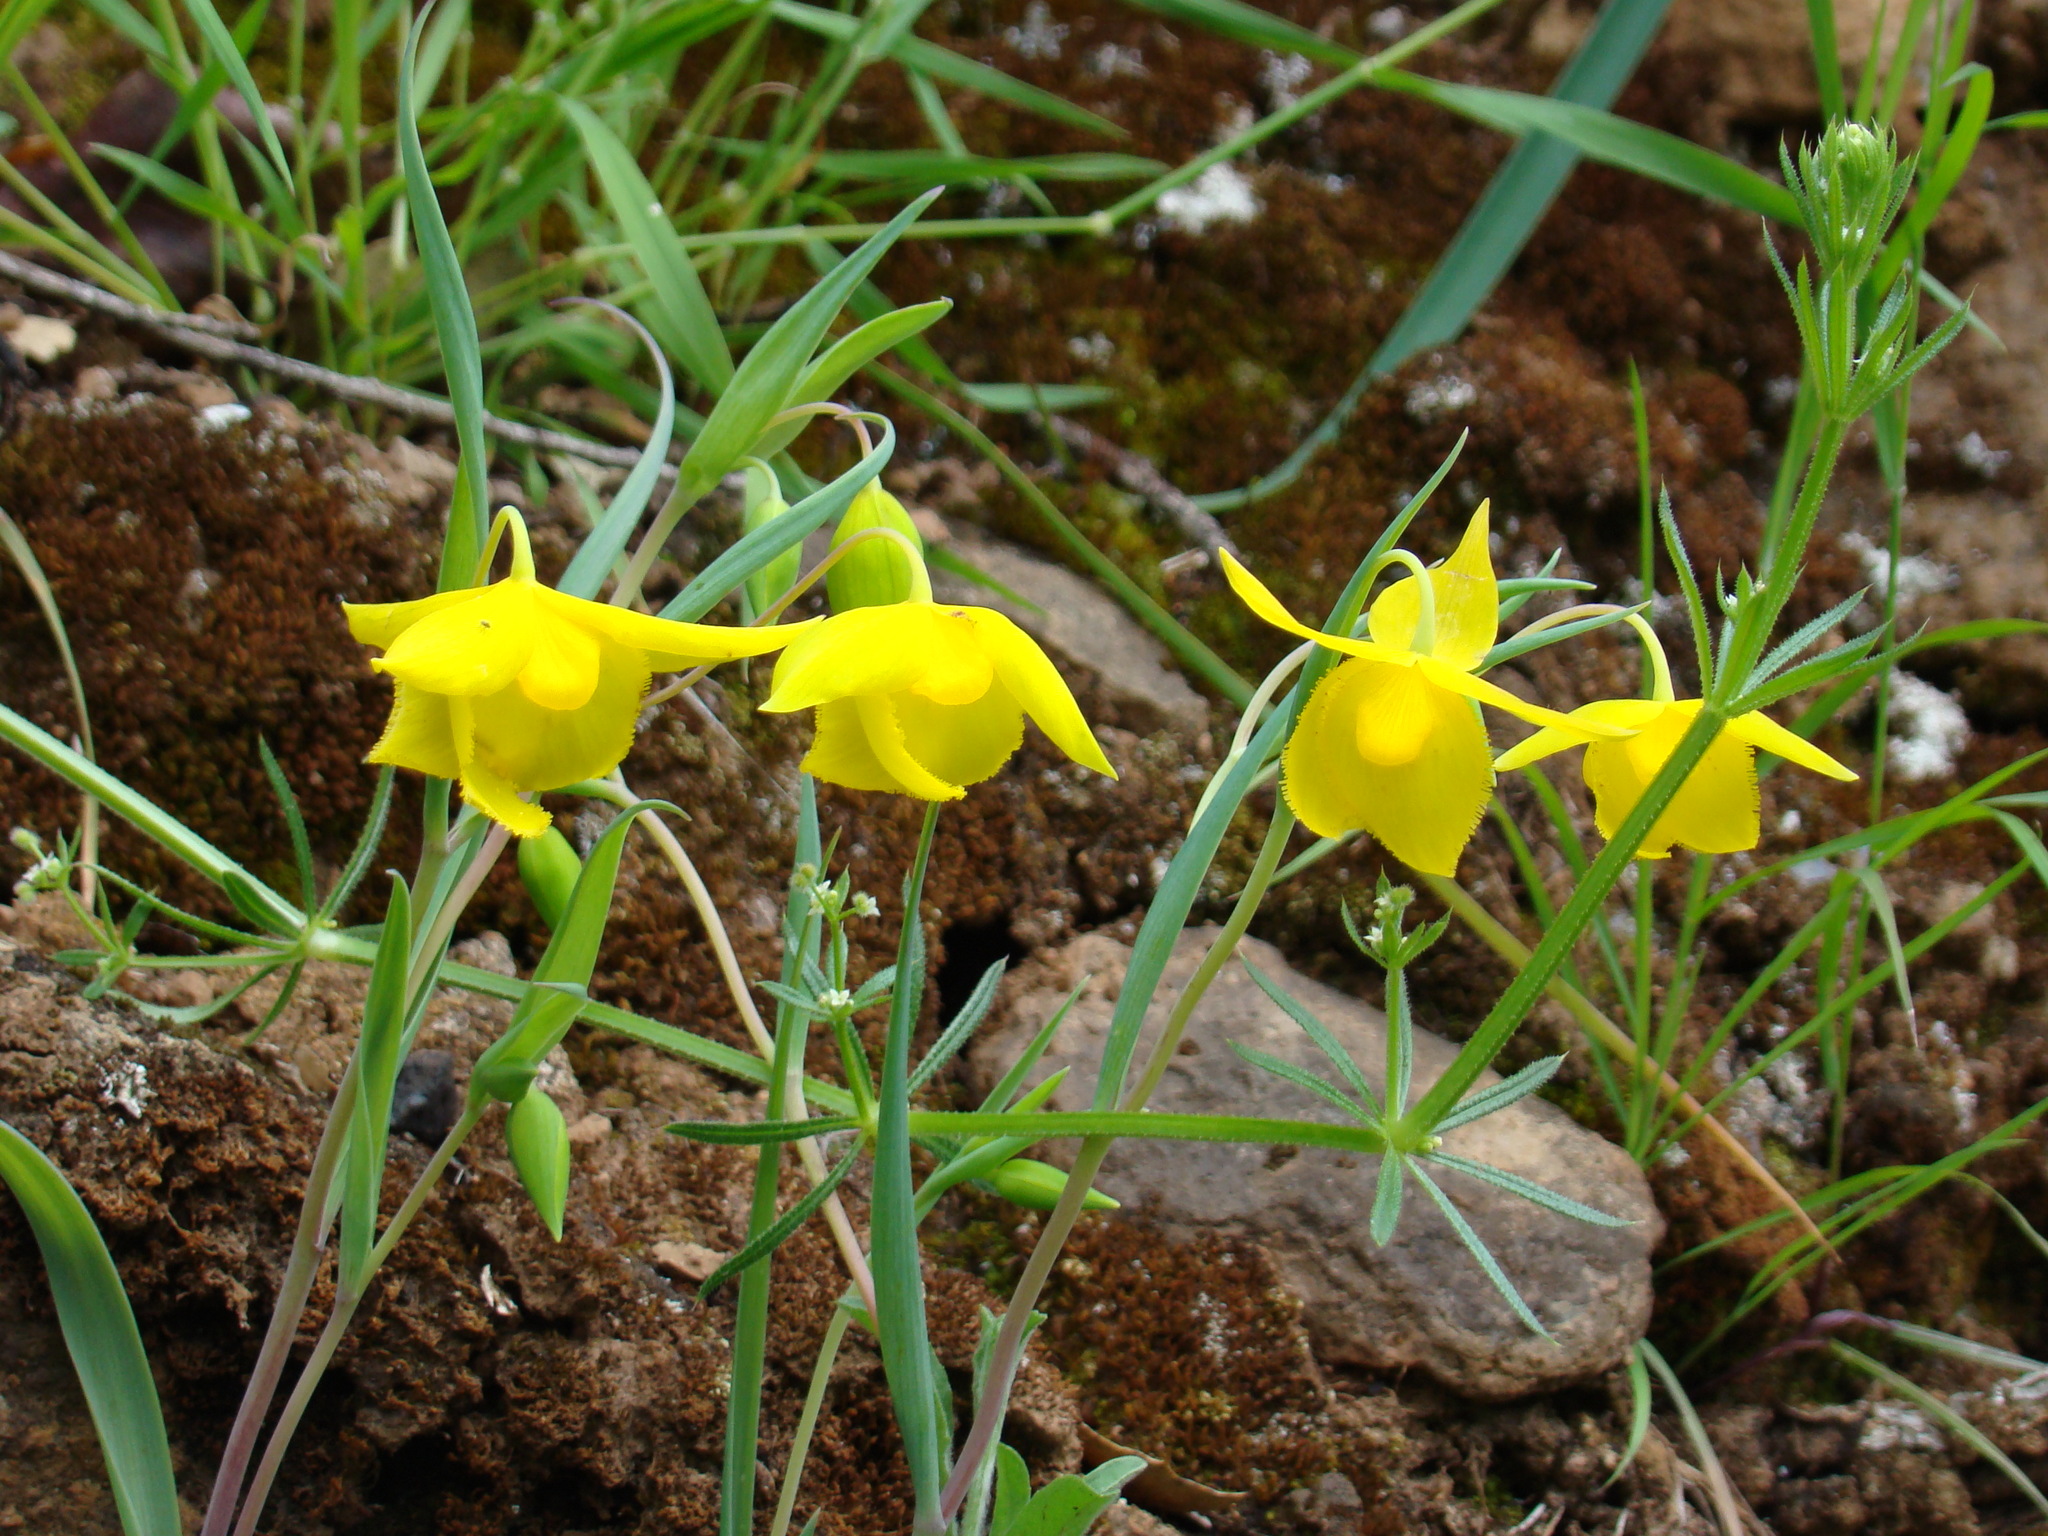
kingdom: Plantae
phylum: Tracheophyta
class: Liliopsida
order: Liliales
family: Liliaceae
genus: Calochortus
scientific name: Calochortus amabilis
